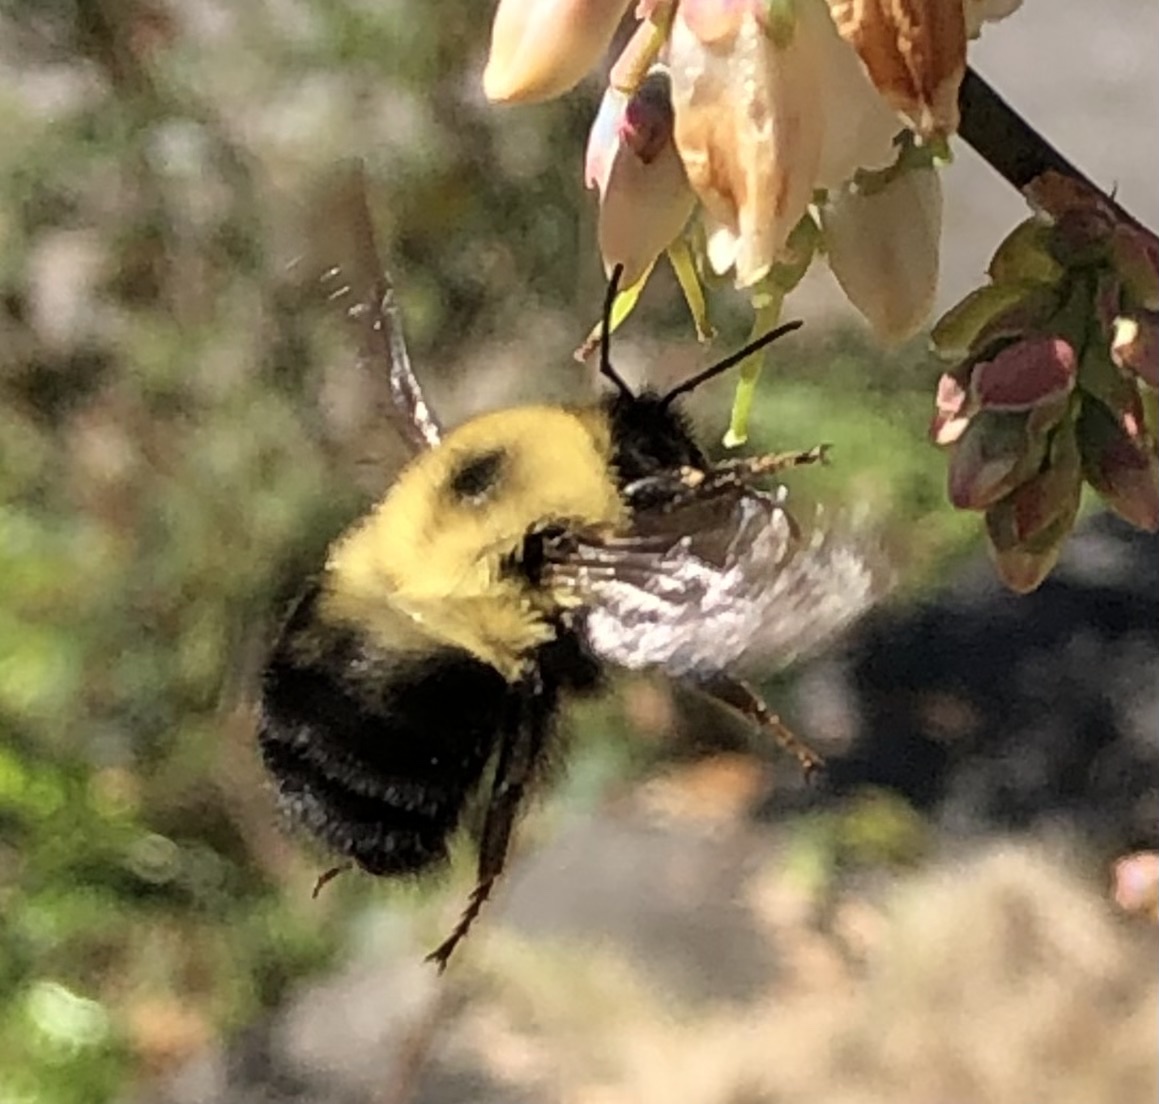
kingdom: Animalia
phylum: Arthropoda
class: Insecta
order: Hymenoptera
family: Apidae
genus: Bombus
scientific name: Bombus bimaculatus
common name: Two-spotted bumble bee
